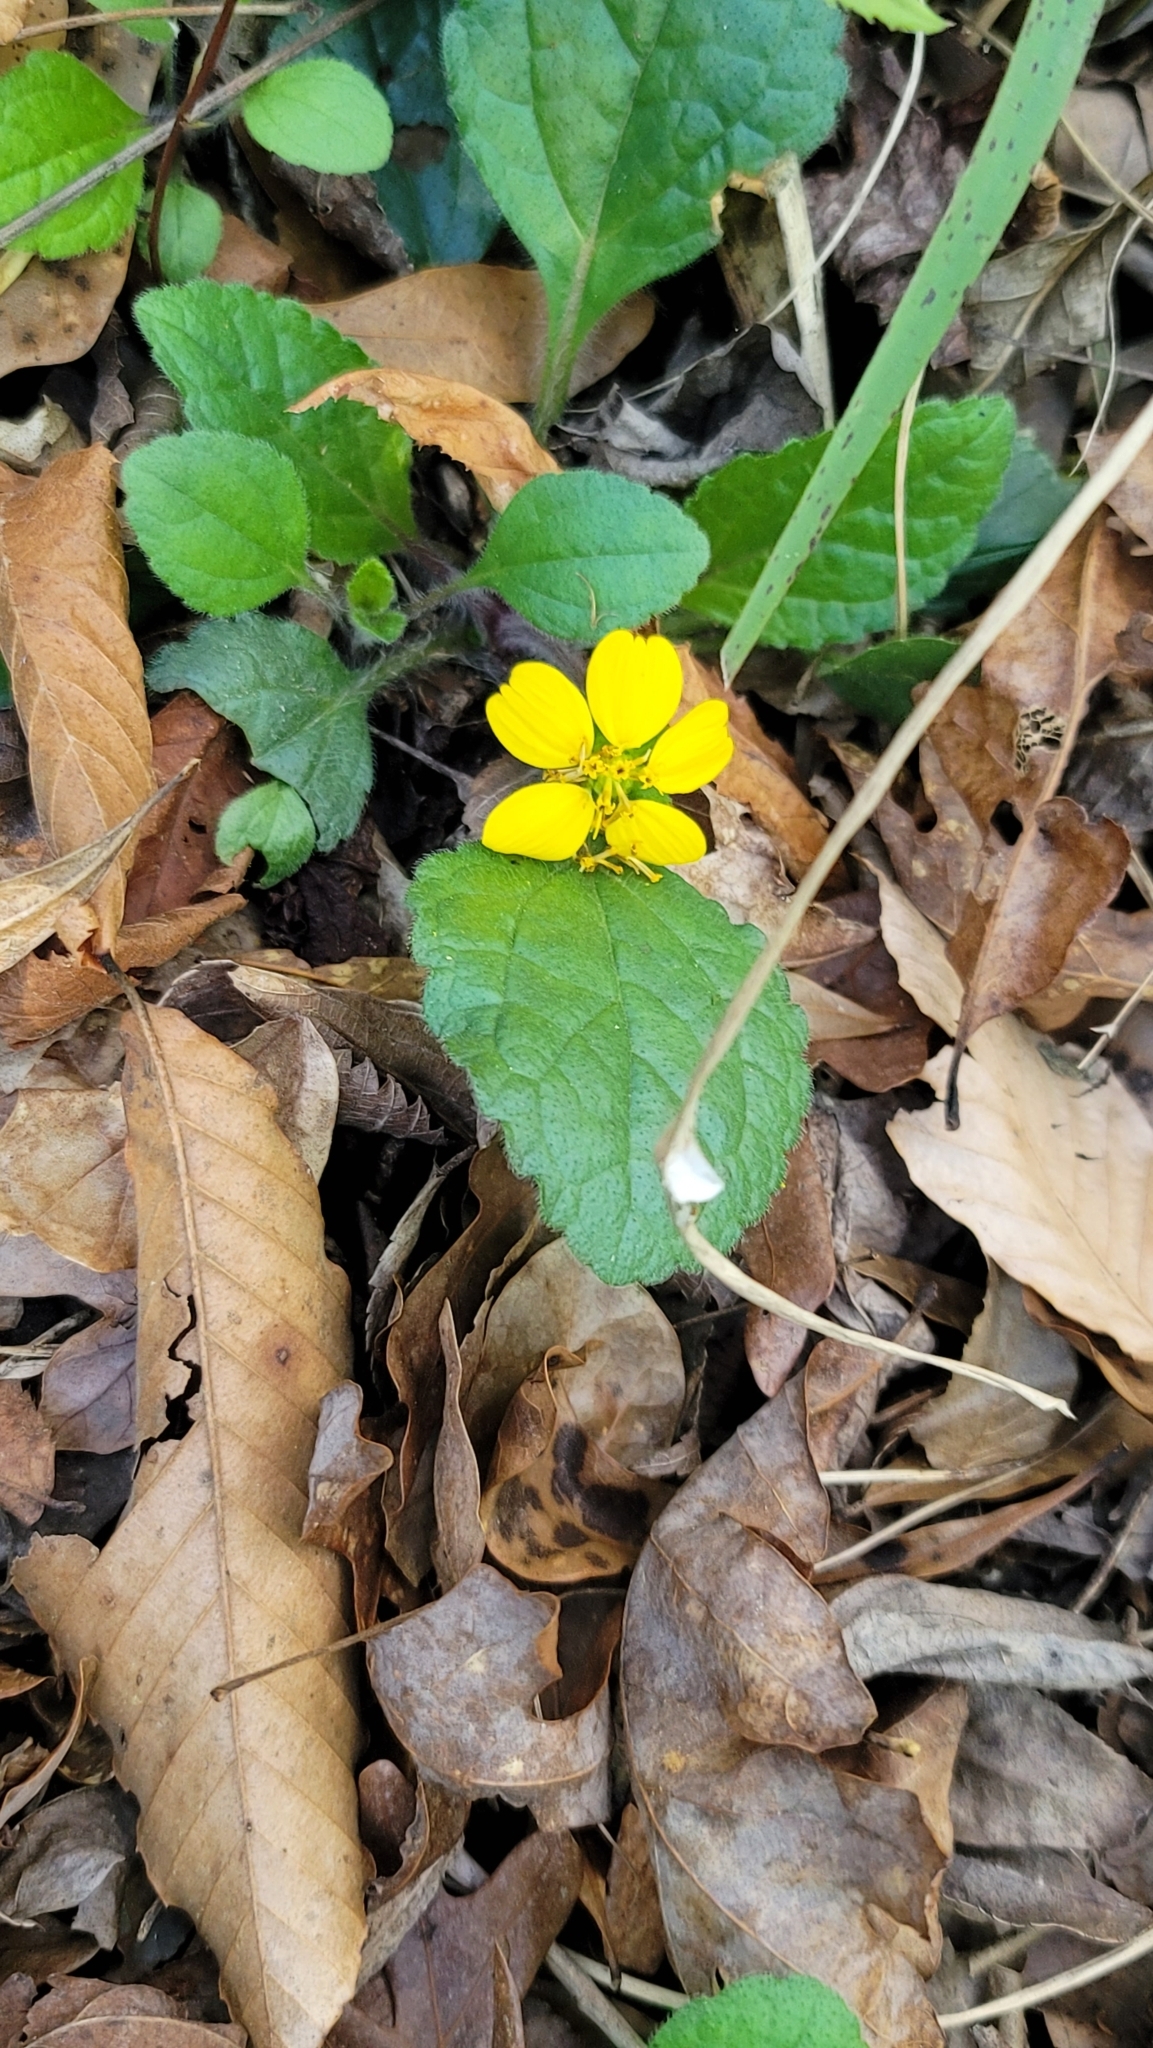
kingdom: Plantae
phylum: Tracheophyta
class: Magnoliopsida
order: Asterales
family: Asteraceae
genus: Chrysogonum
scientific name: Chrysogonum virginianum
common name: Golden-knee
